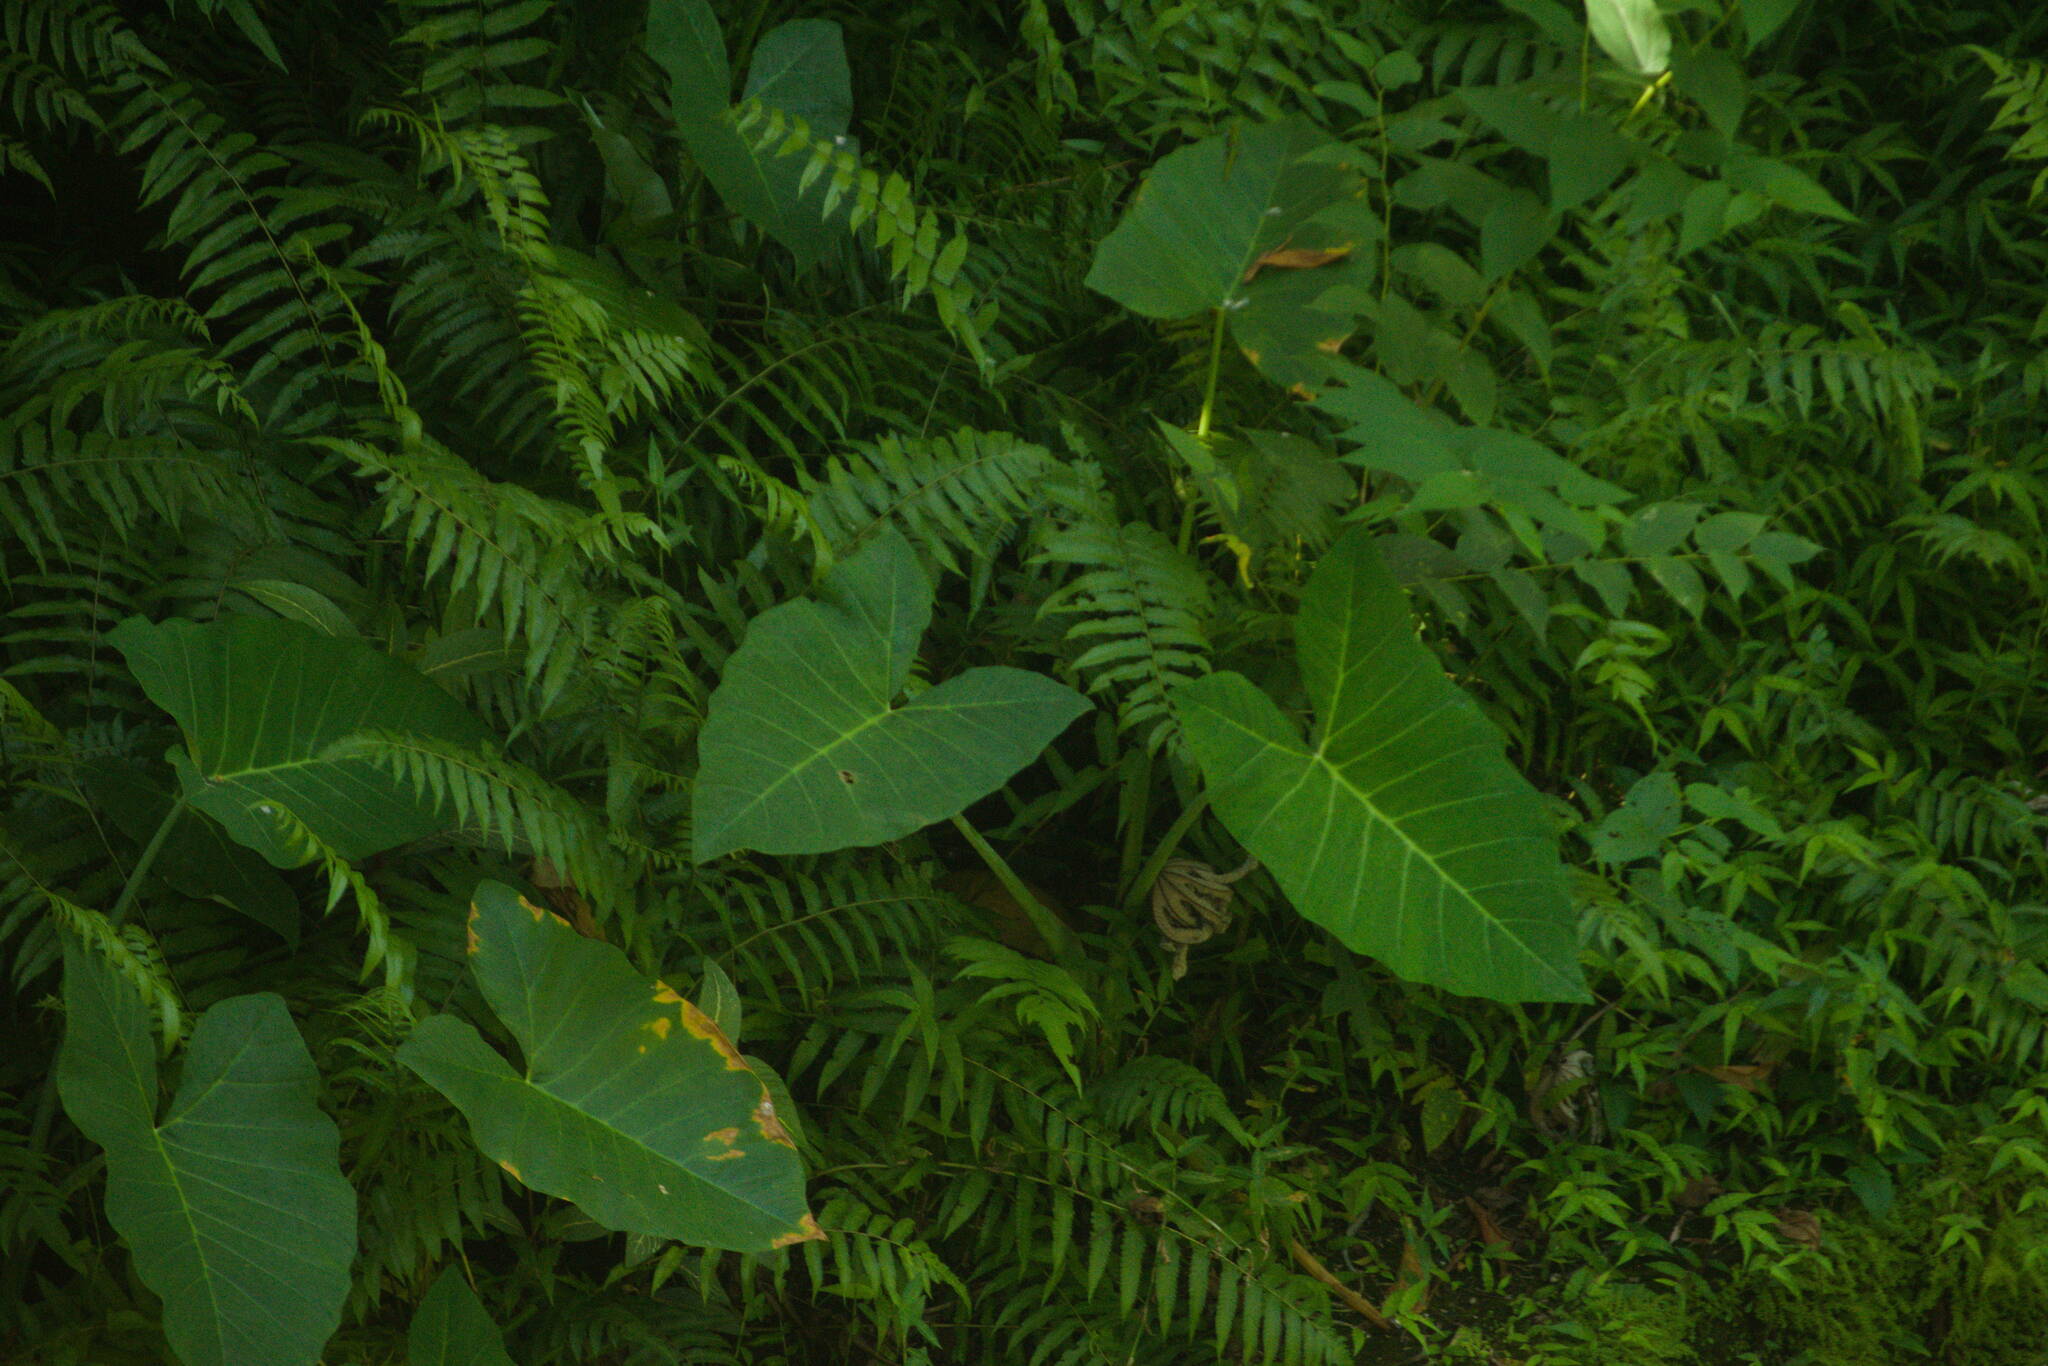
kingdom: Plantae
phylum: Tracheophyta
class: Liliopsida
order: Alismatales
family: Araceae
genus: Xanthosoma
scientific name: Xanthosoma robustum
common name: Capote
